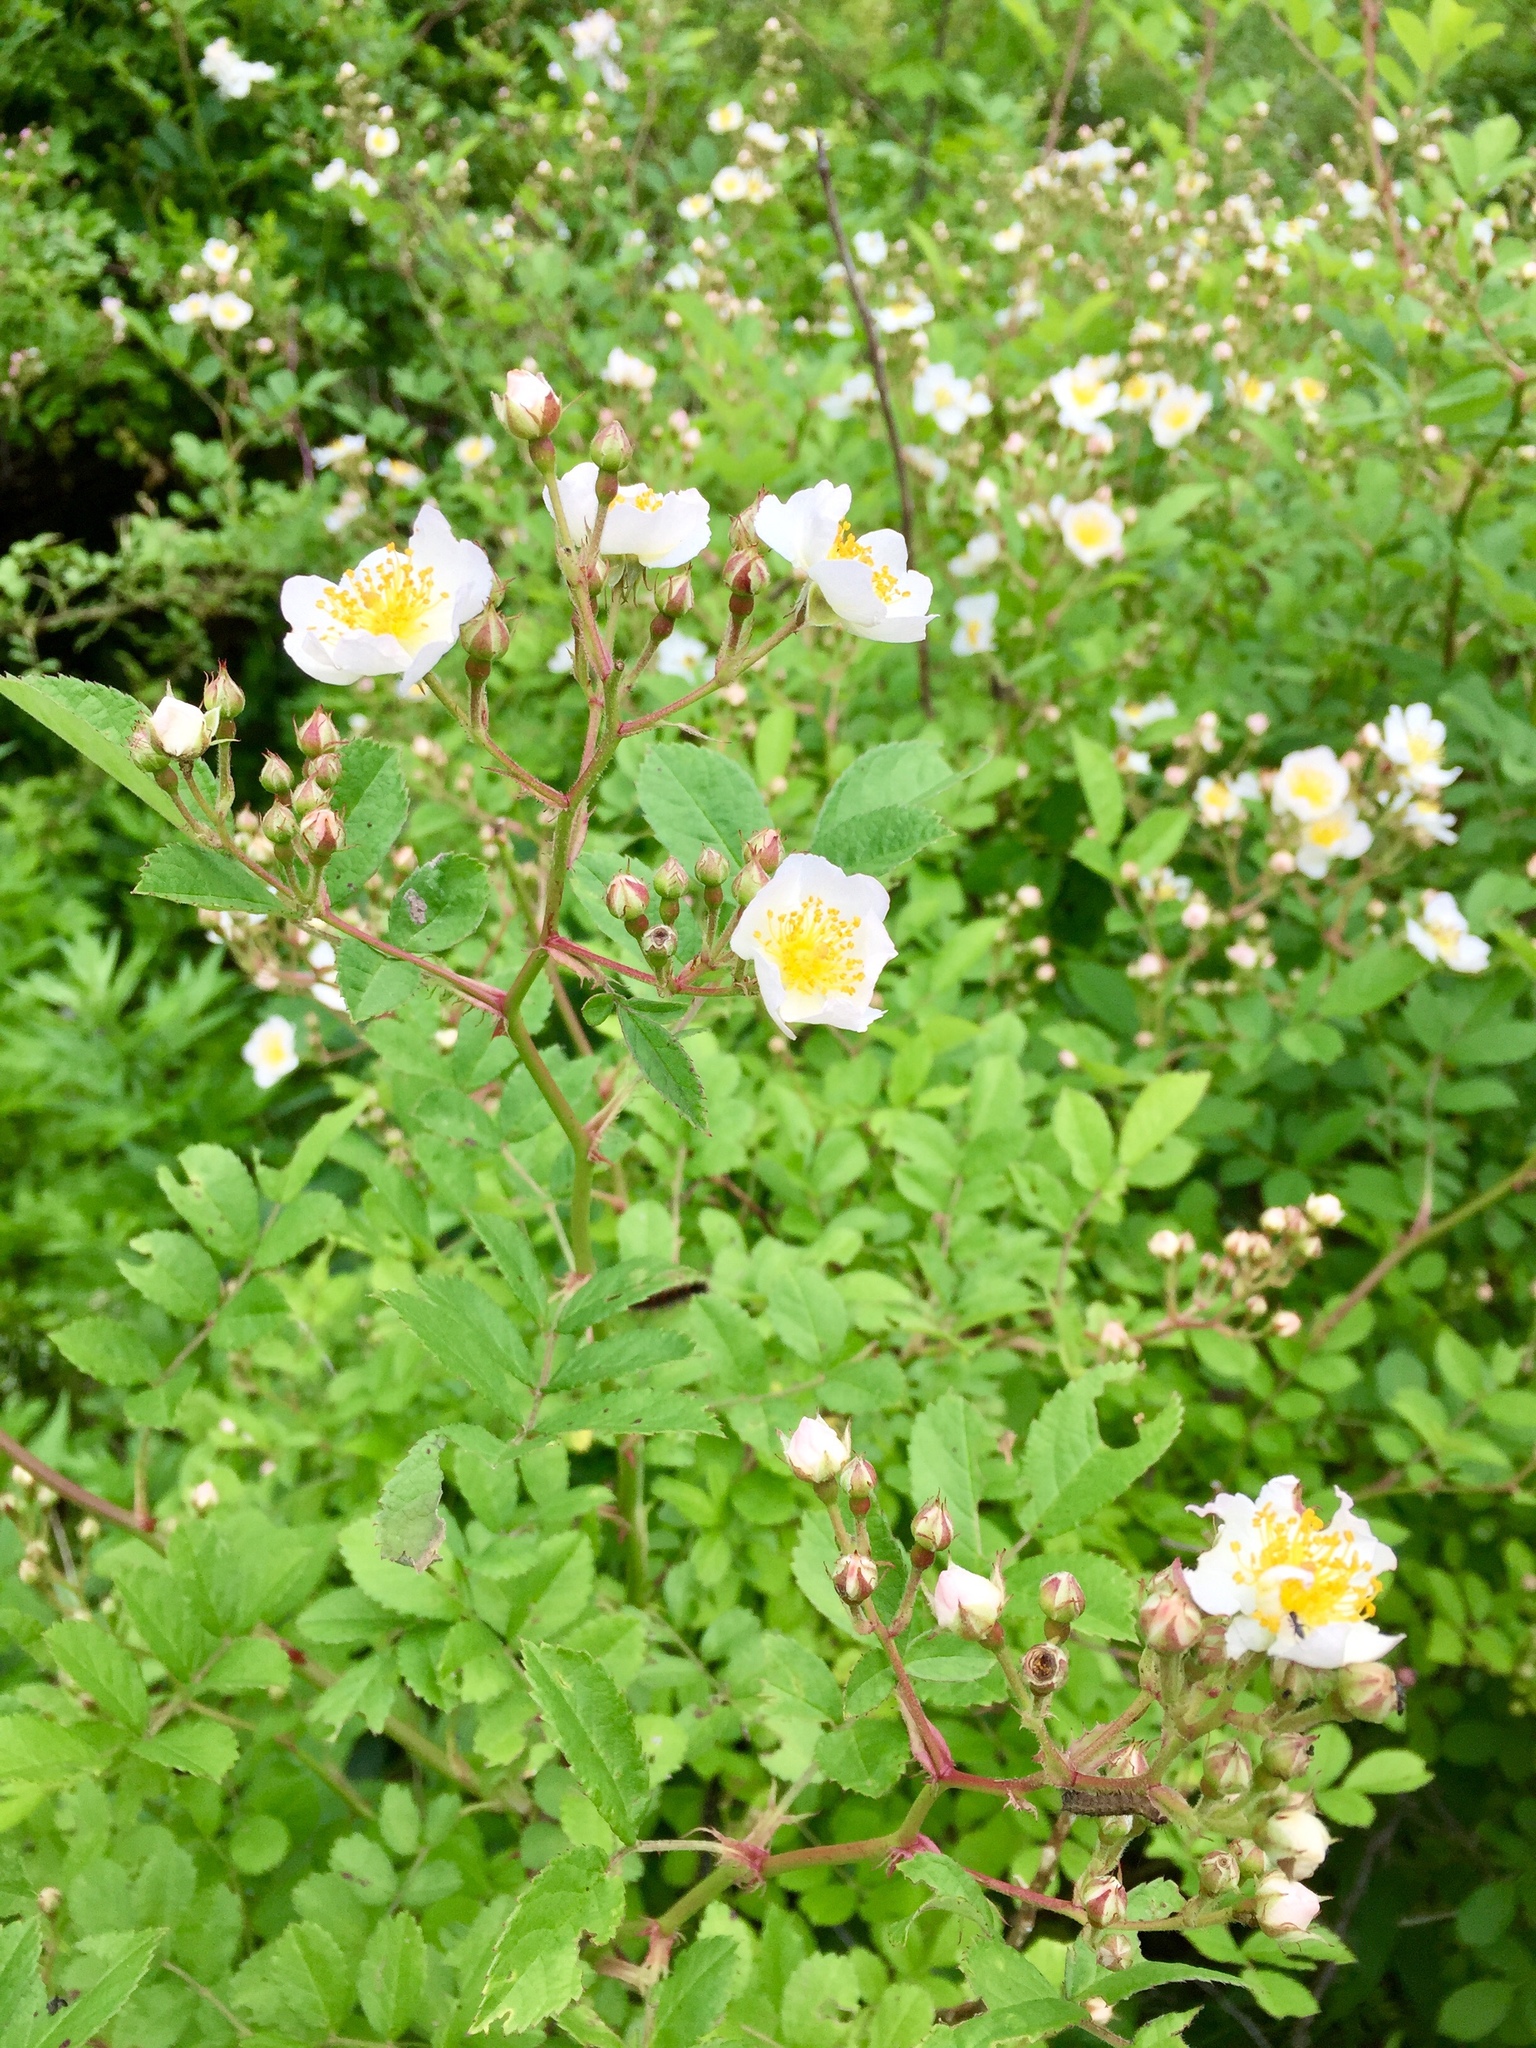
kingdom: Plantae
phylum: Tracheophyta
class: Magnoliopsida
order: Rosales
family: Rosaceae
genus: Rosa
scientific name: Rosa multiflora
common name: Multiflora rose
